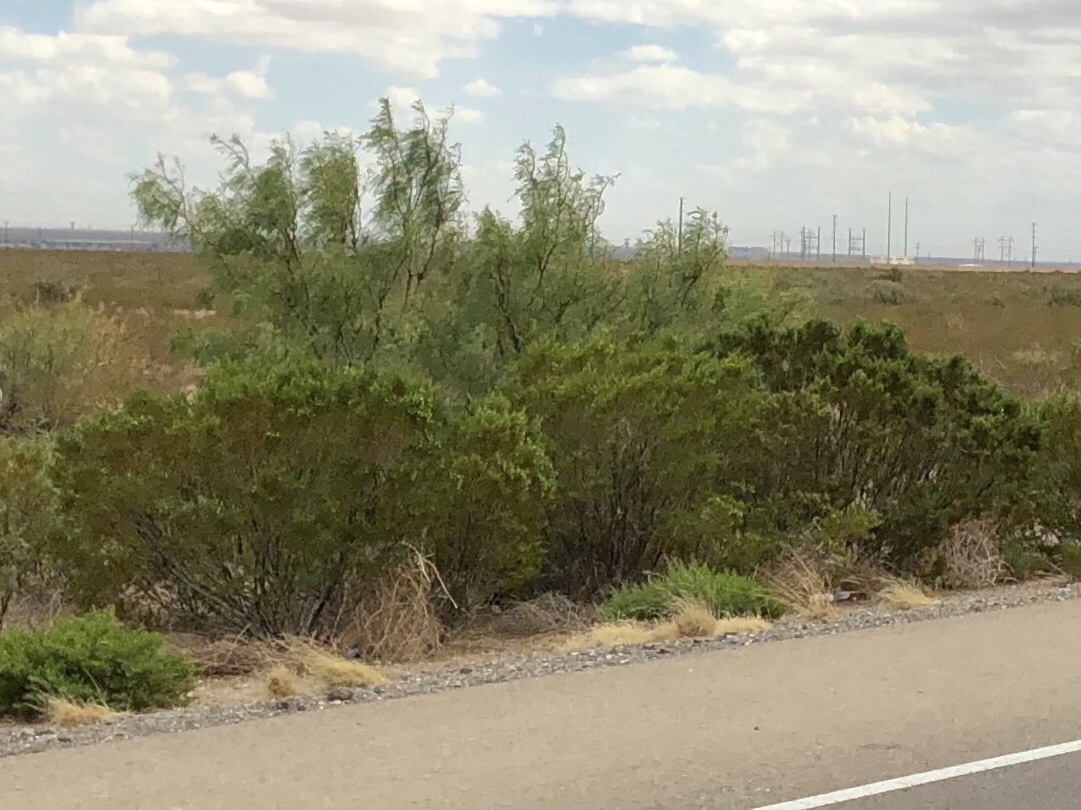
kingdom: Plantae
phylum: Tracheophyta
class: Magnoliopsida
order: Zygophyllales
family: Zygophyllaceae
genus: Larrea
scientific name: Larrea tridentata
